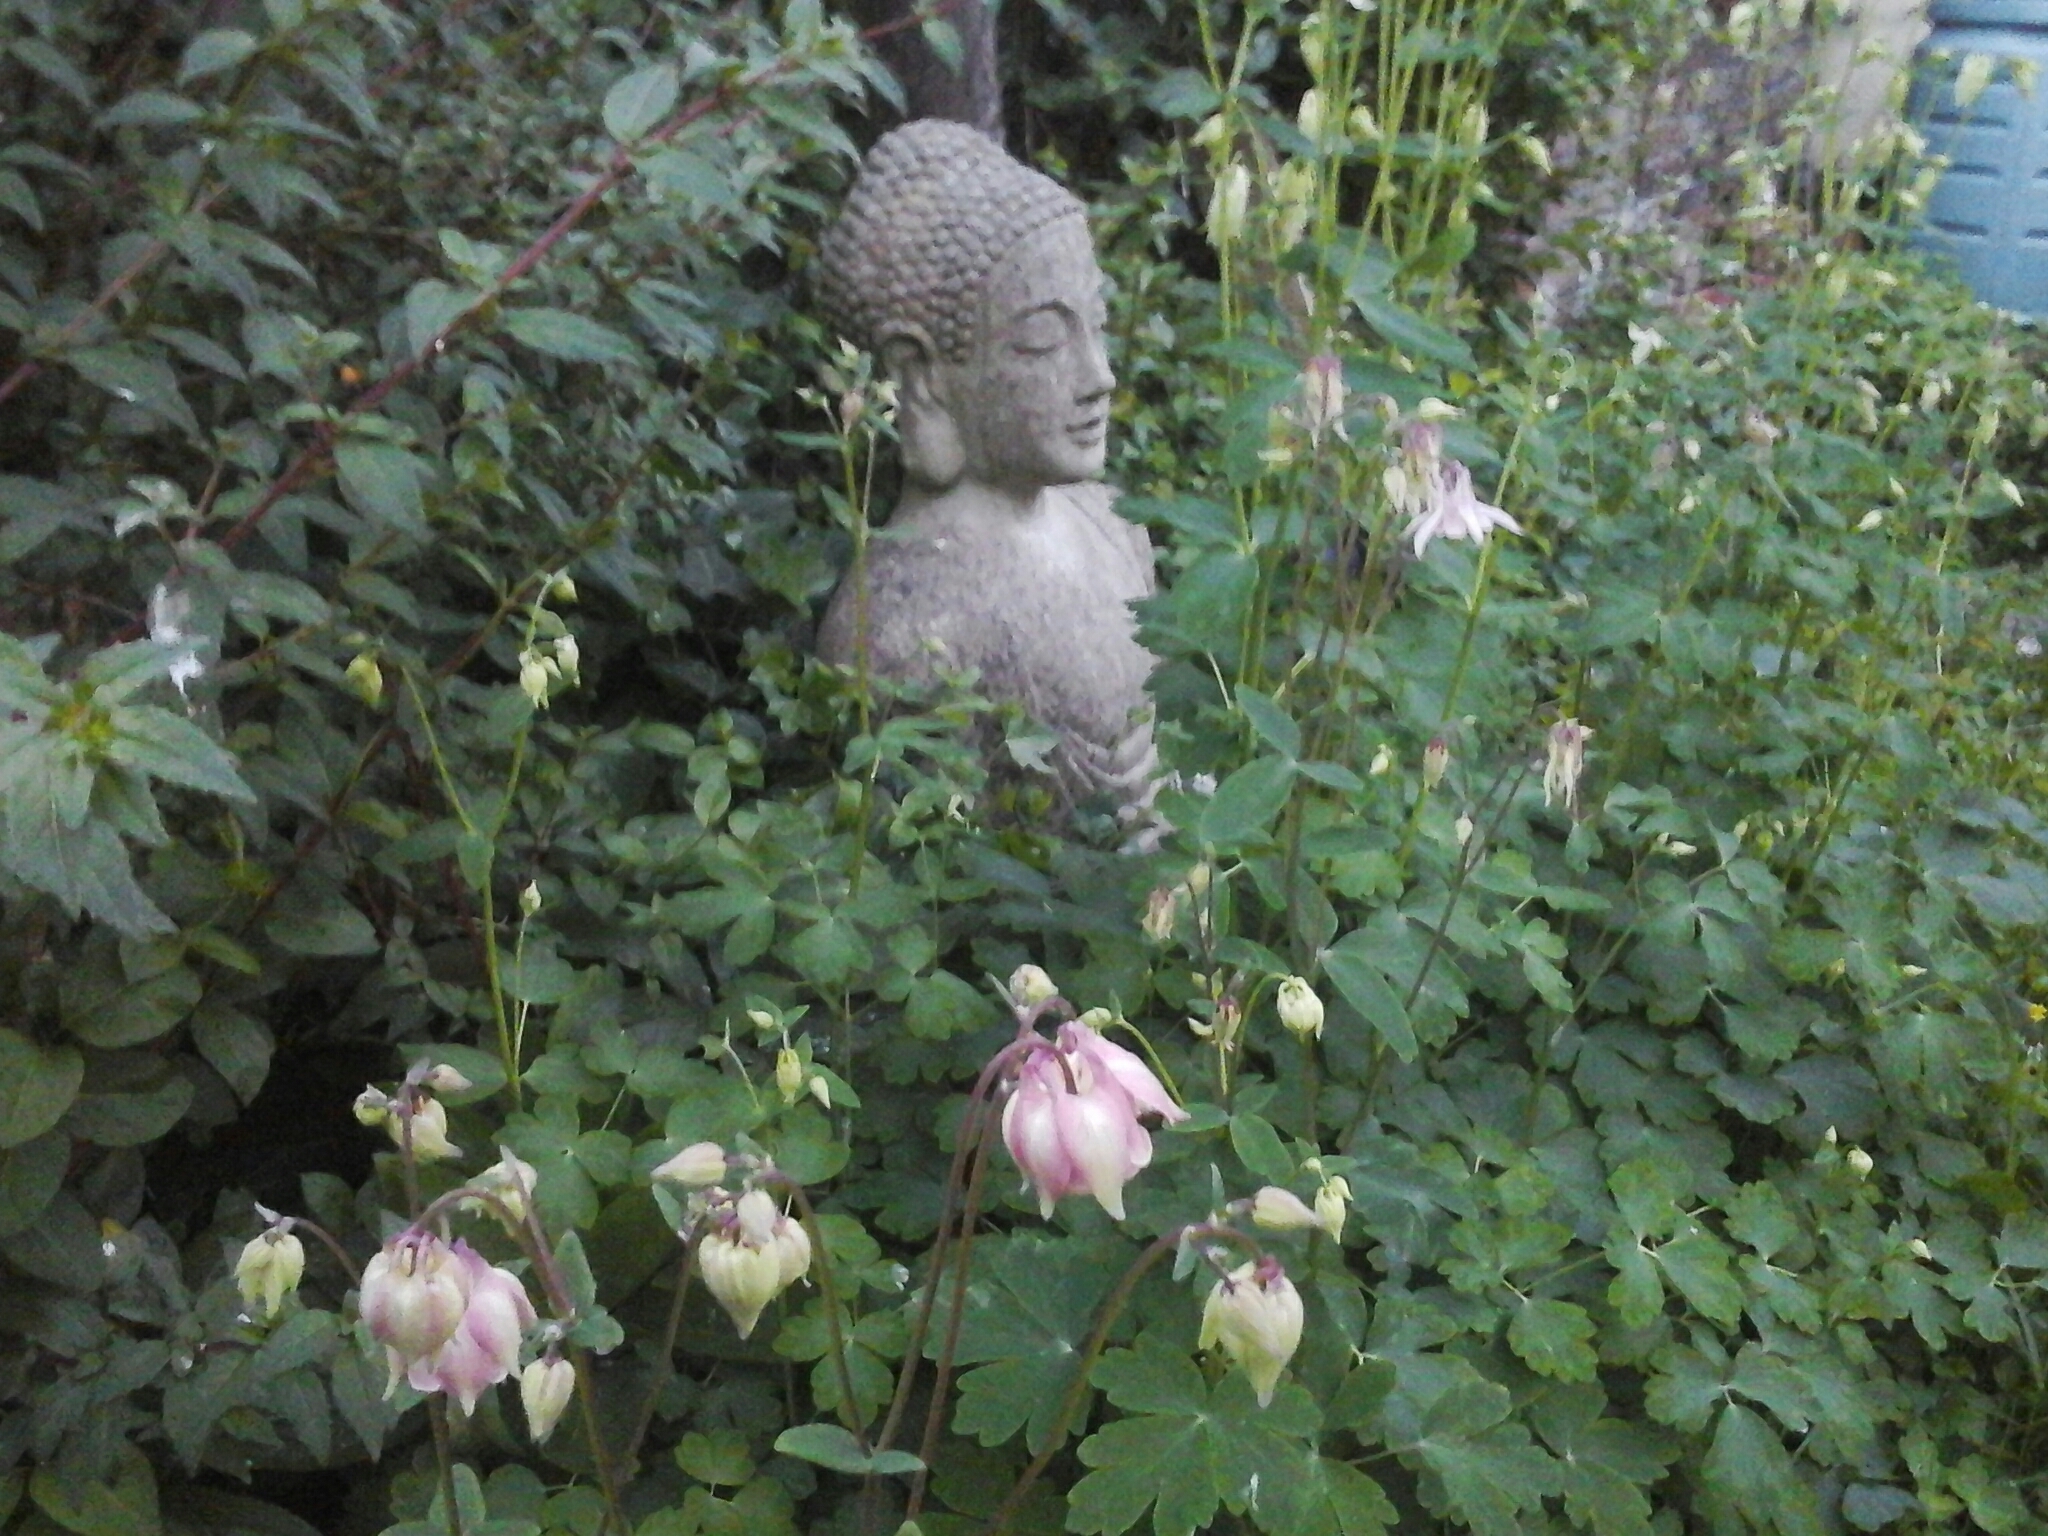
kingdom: Plantae
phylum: Tracheophyta
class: Magnoliopsida
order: Ranunculales
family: Ranunculaceae
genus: Aquilegia
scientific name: Aquilegia vulgaris
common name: Columbine
